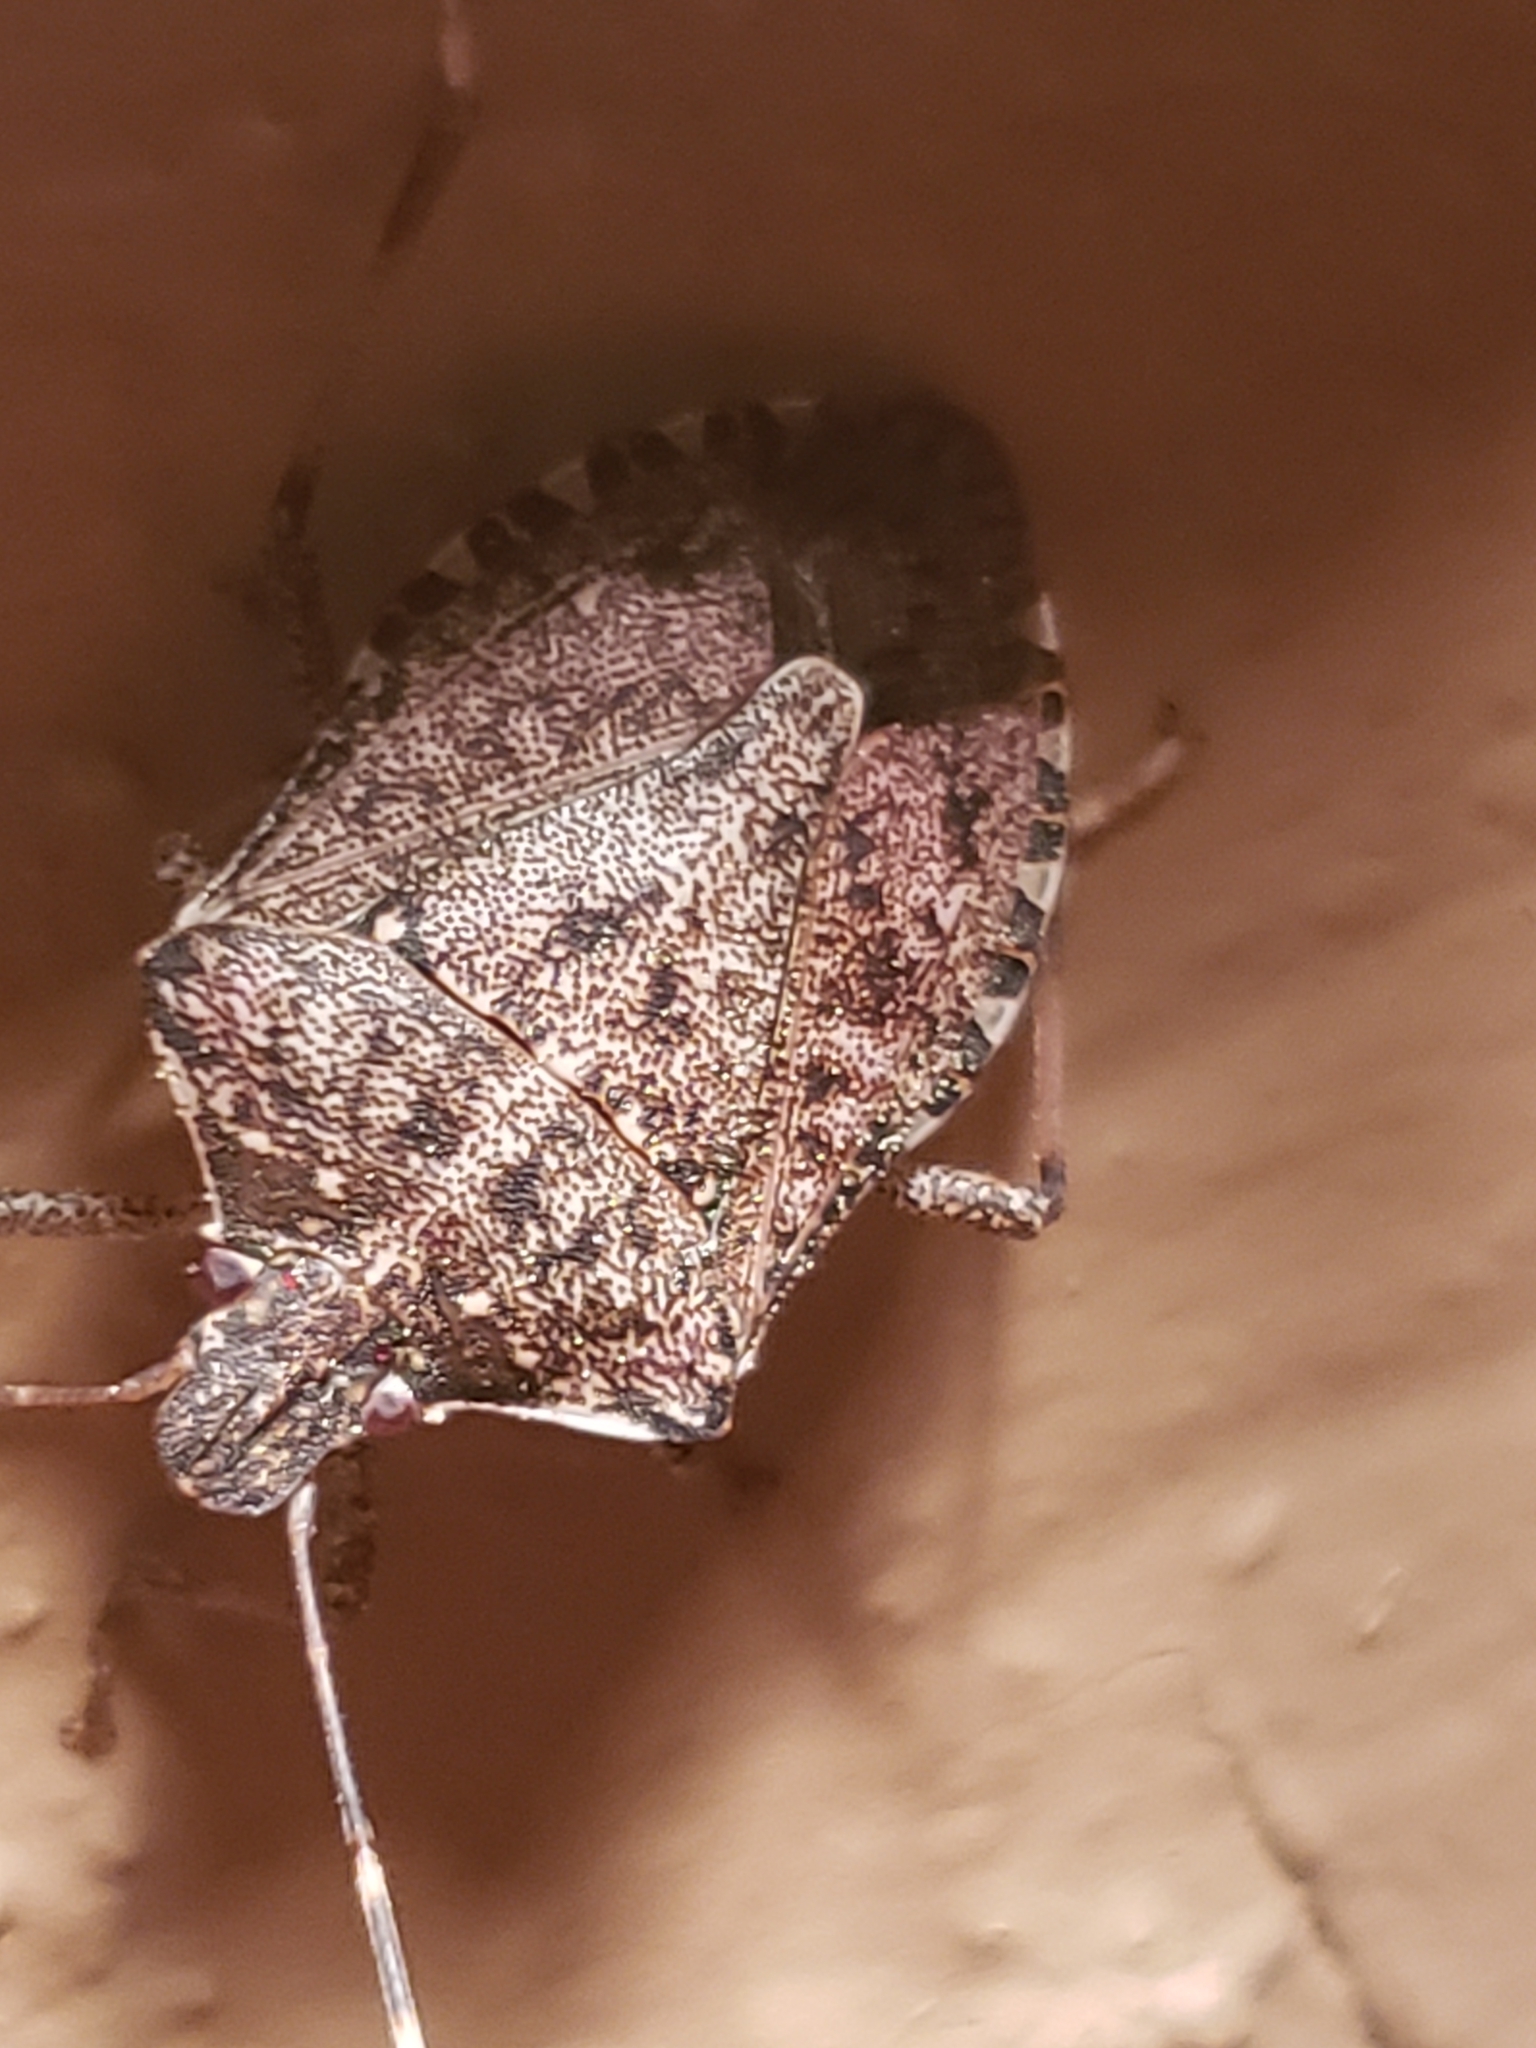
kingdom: Animalia
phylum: Arthropoda
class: Insecta
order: Hemiptera
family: Pentatomidae
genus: Halyomorpha
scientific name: Halyomorpha halys
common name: Brown marmorated stink bug
